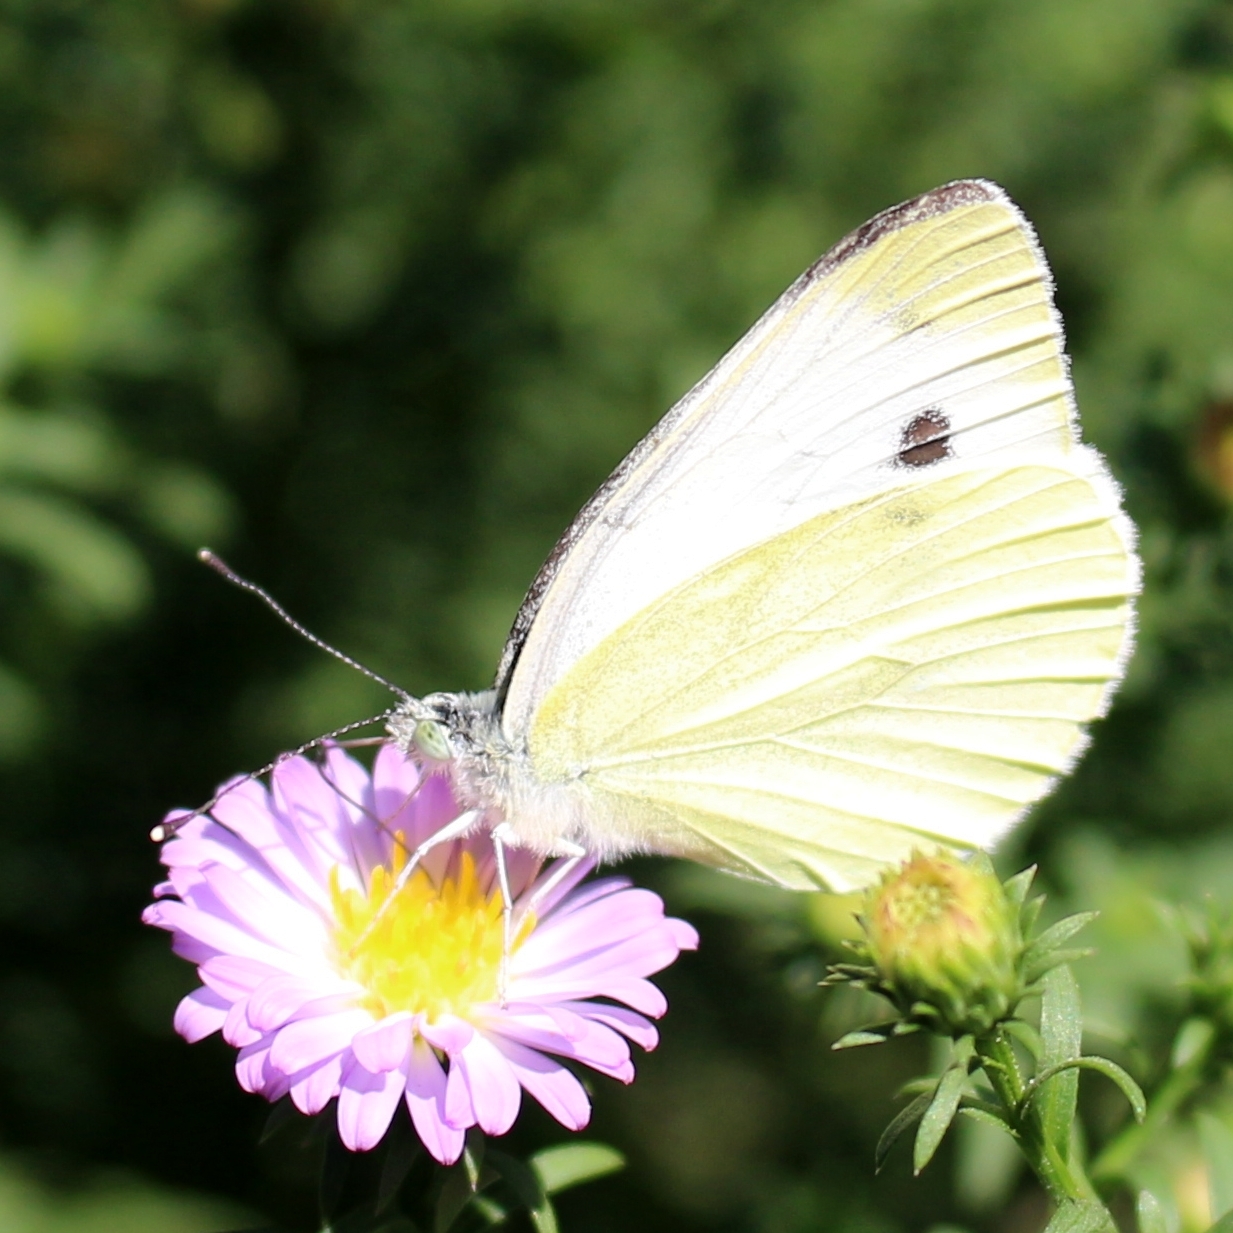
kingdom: Animalia
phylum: Arthropoda
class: Insecta
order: Lepidoptera
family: Pieridae
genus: Pieris
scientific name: Pieris napi
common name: Green-veined white
